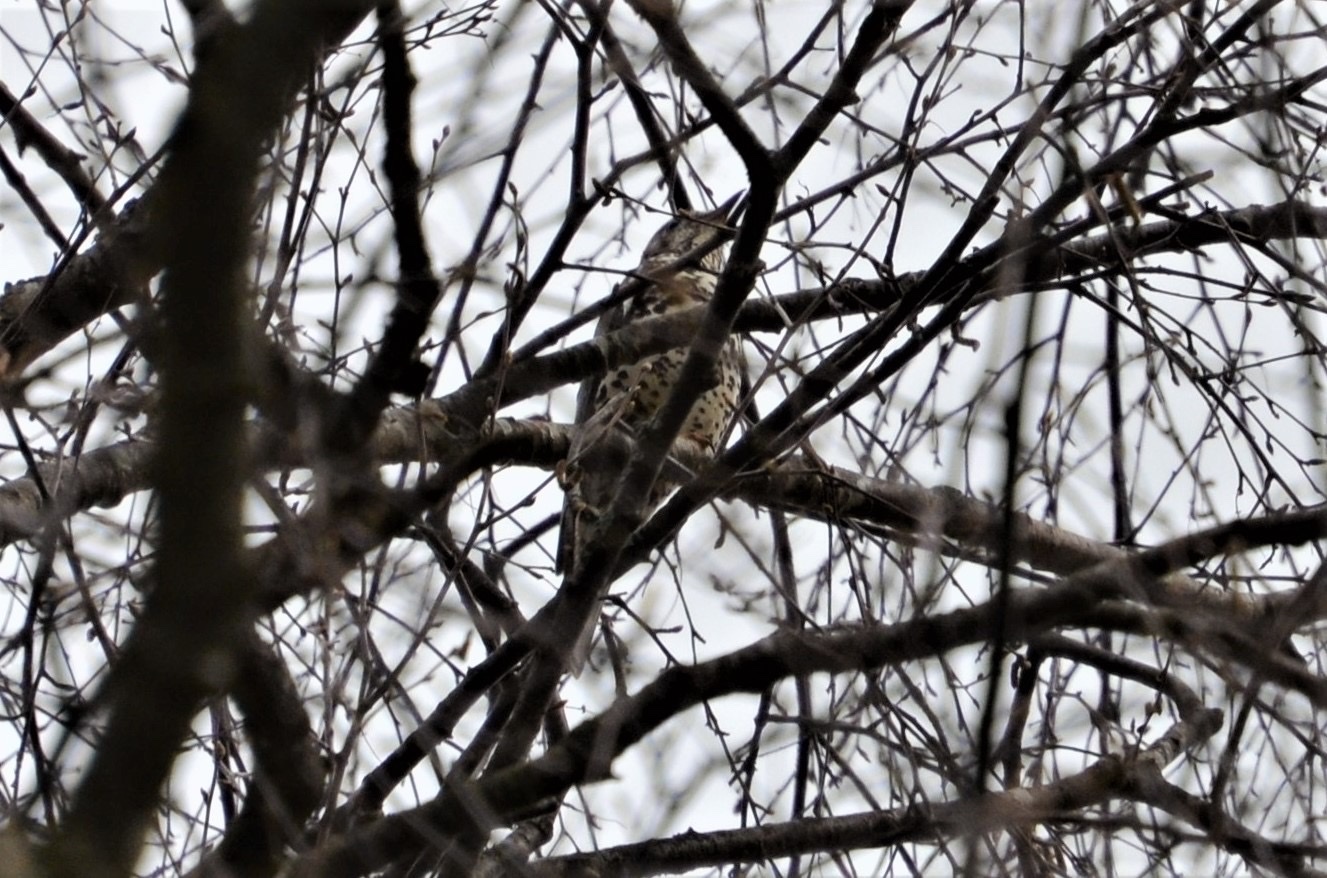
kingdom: Animalia
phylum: Chordata
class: Aves
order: Passeriformes
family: Turdidae
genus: Turdus
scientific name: Turdus viscivorus
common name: Mistle thrush
